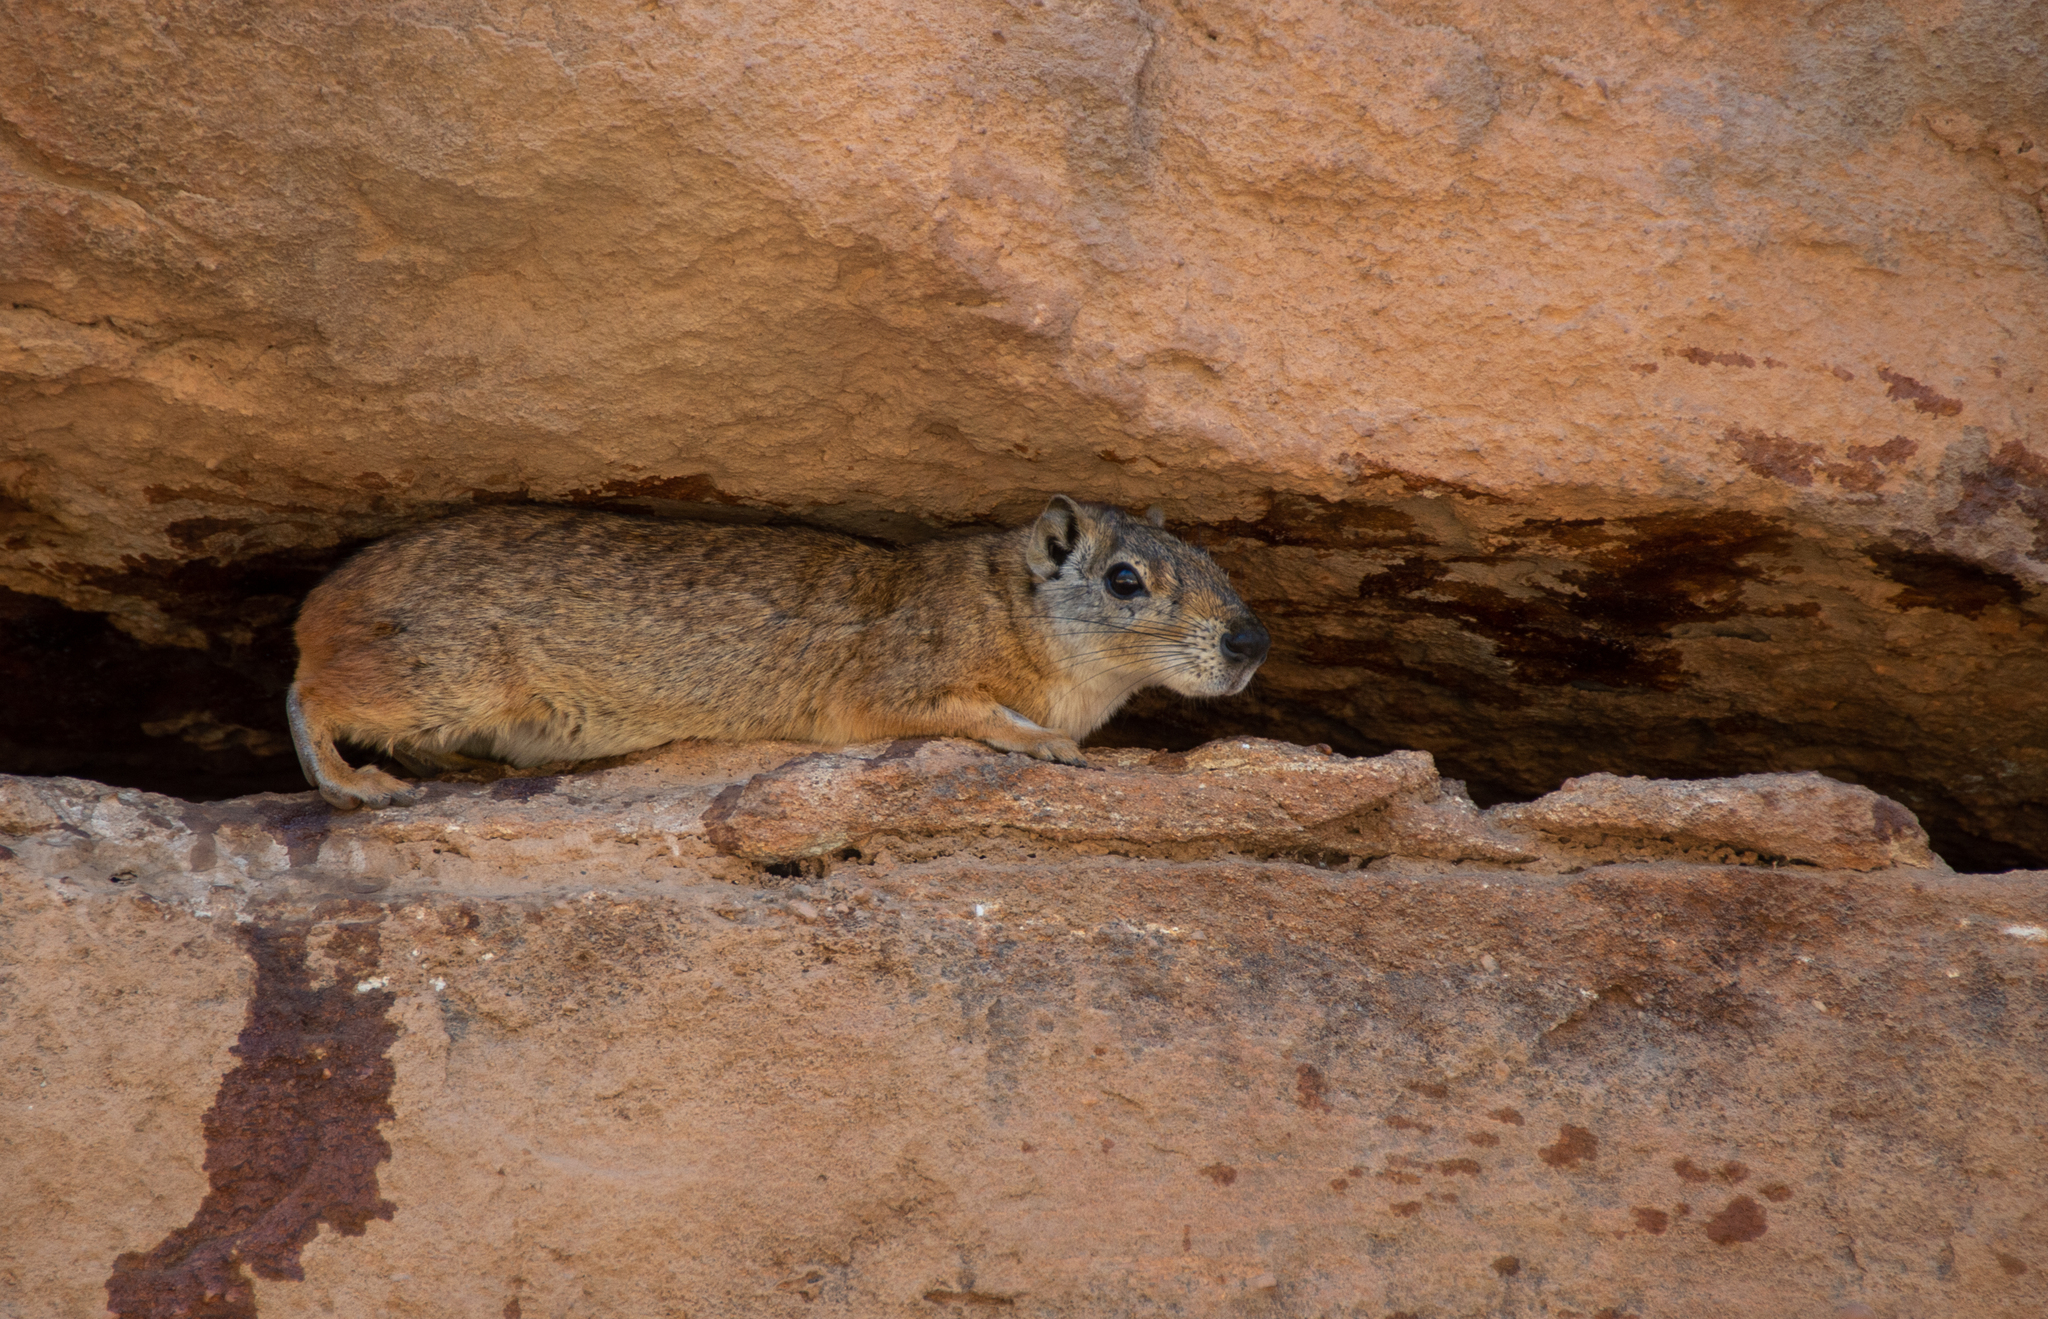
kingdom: Animalia
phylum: Chordata
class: Mammalia
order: Rodentia
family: Caviidae
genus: Kerodon
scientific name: Kerodon rupestris
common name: Rock cavy
